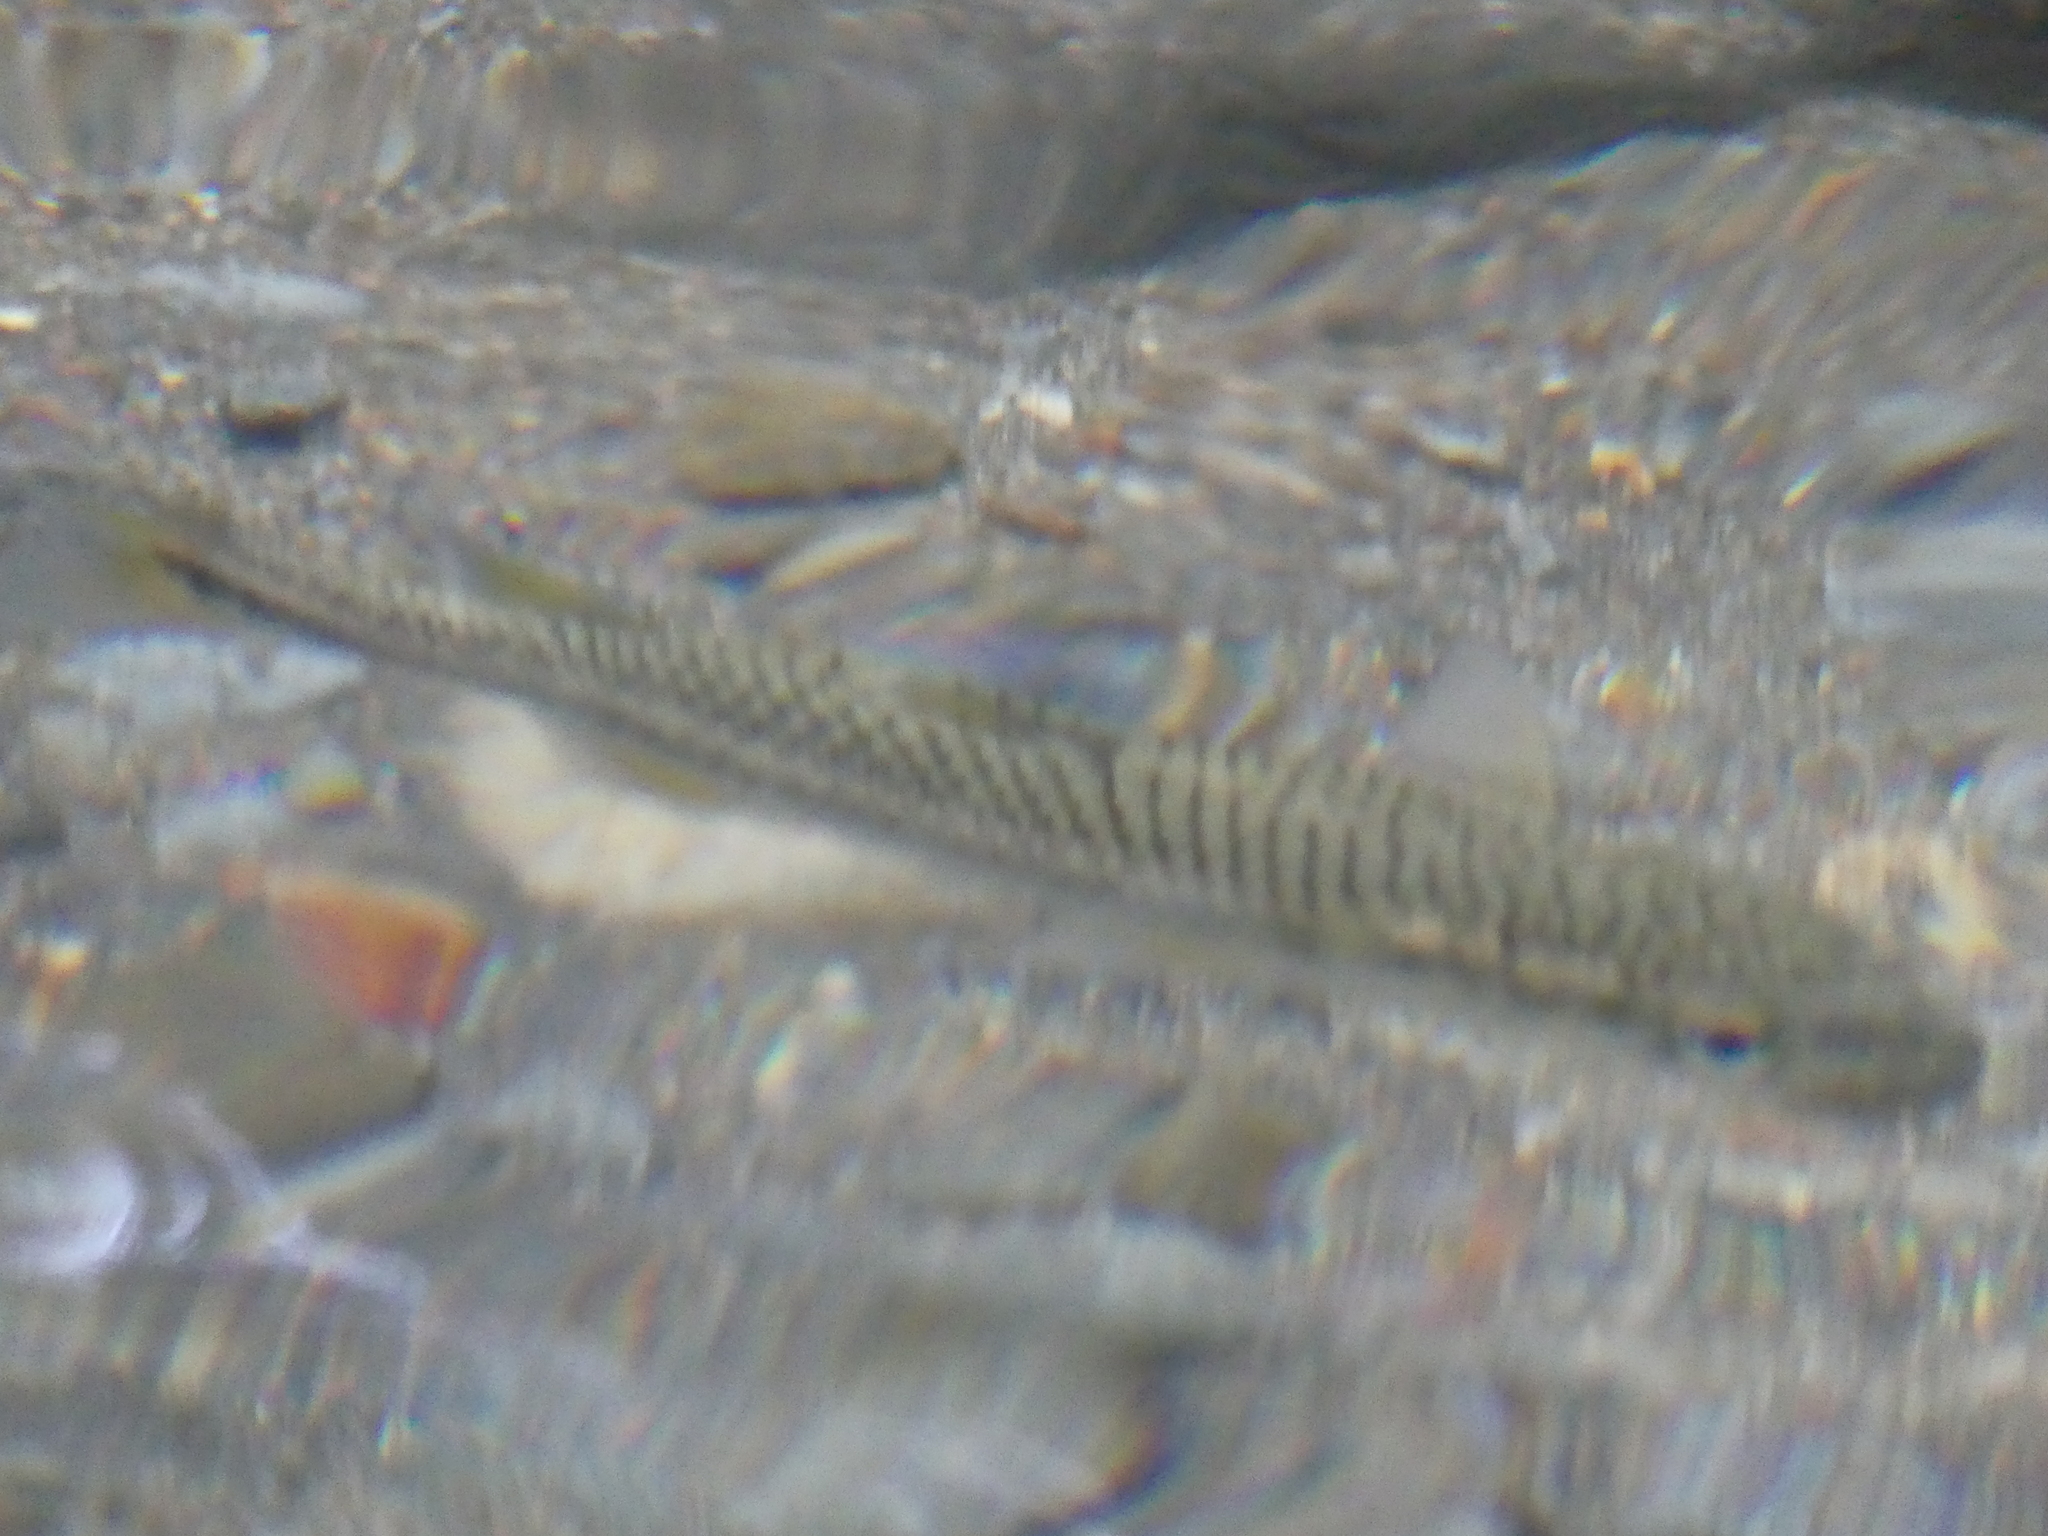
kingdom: Animalia
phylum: Chordata
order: Mugiliformes
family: Mugilidae
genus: Dajaus
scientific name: Dajaus monticola
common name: Mountain mullet
